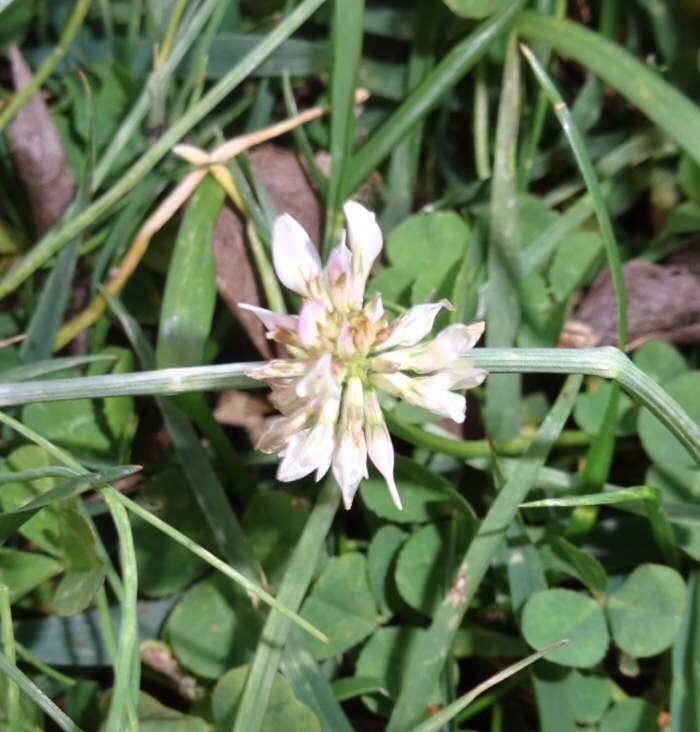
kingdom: Plantae
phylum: Tracheophyta
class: Magnoliopsida
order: Fabales
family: Fabaceae
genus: Trifolium
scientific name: Trifolium repens
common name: White clover
